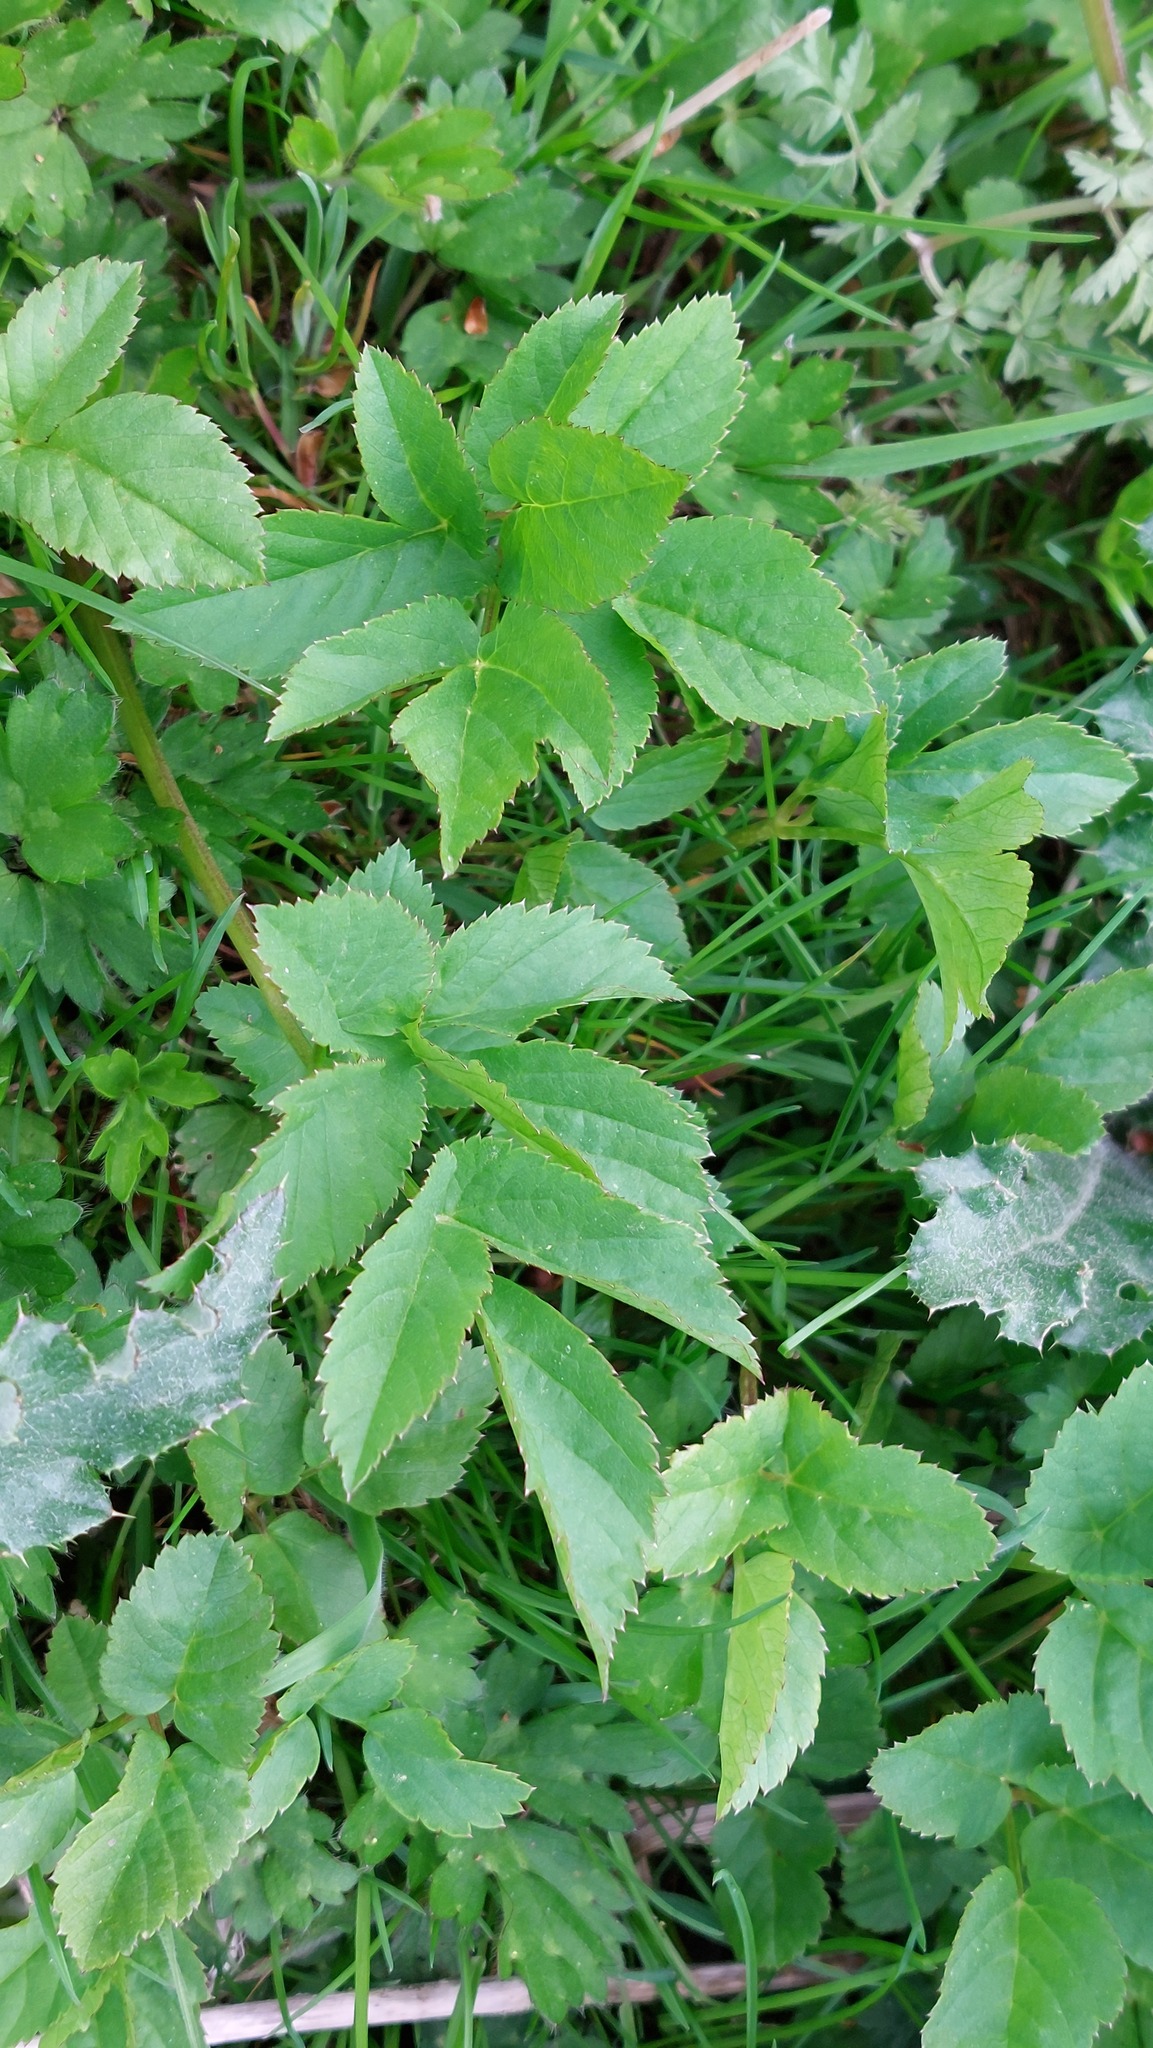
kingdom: Plantae
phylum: Tracheophyta
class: Magnoliopsida
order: Apiales
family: Apiaceae
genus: Aegopodium
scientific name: Aegopodium podagraria
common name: Ground-elder
